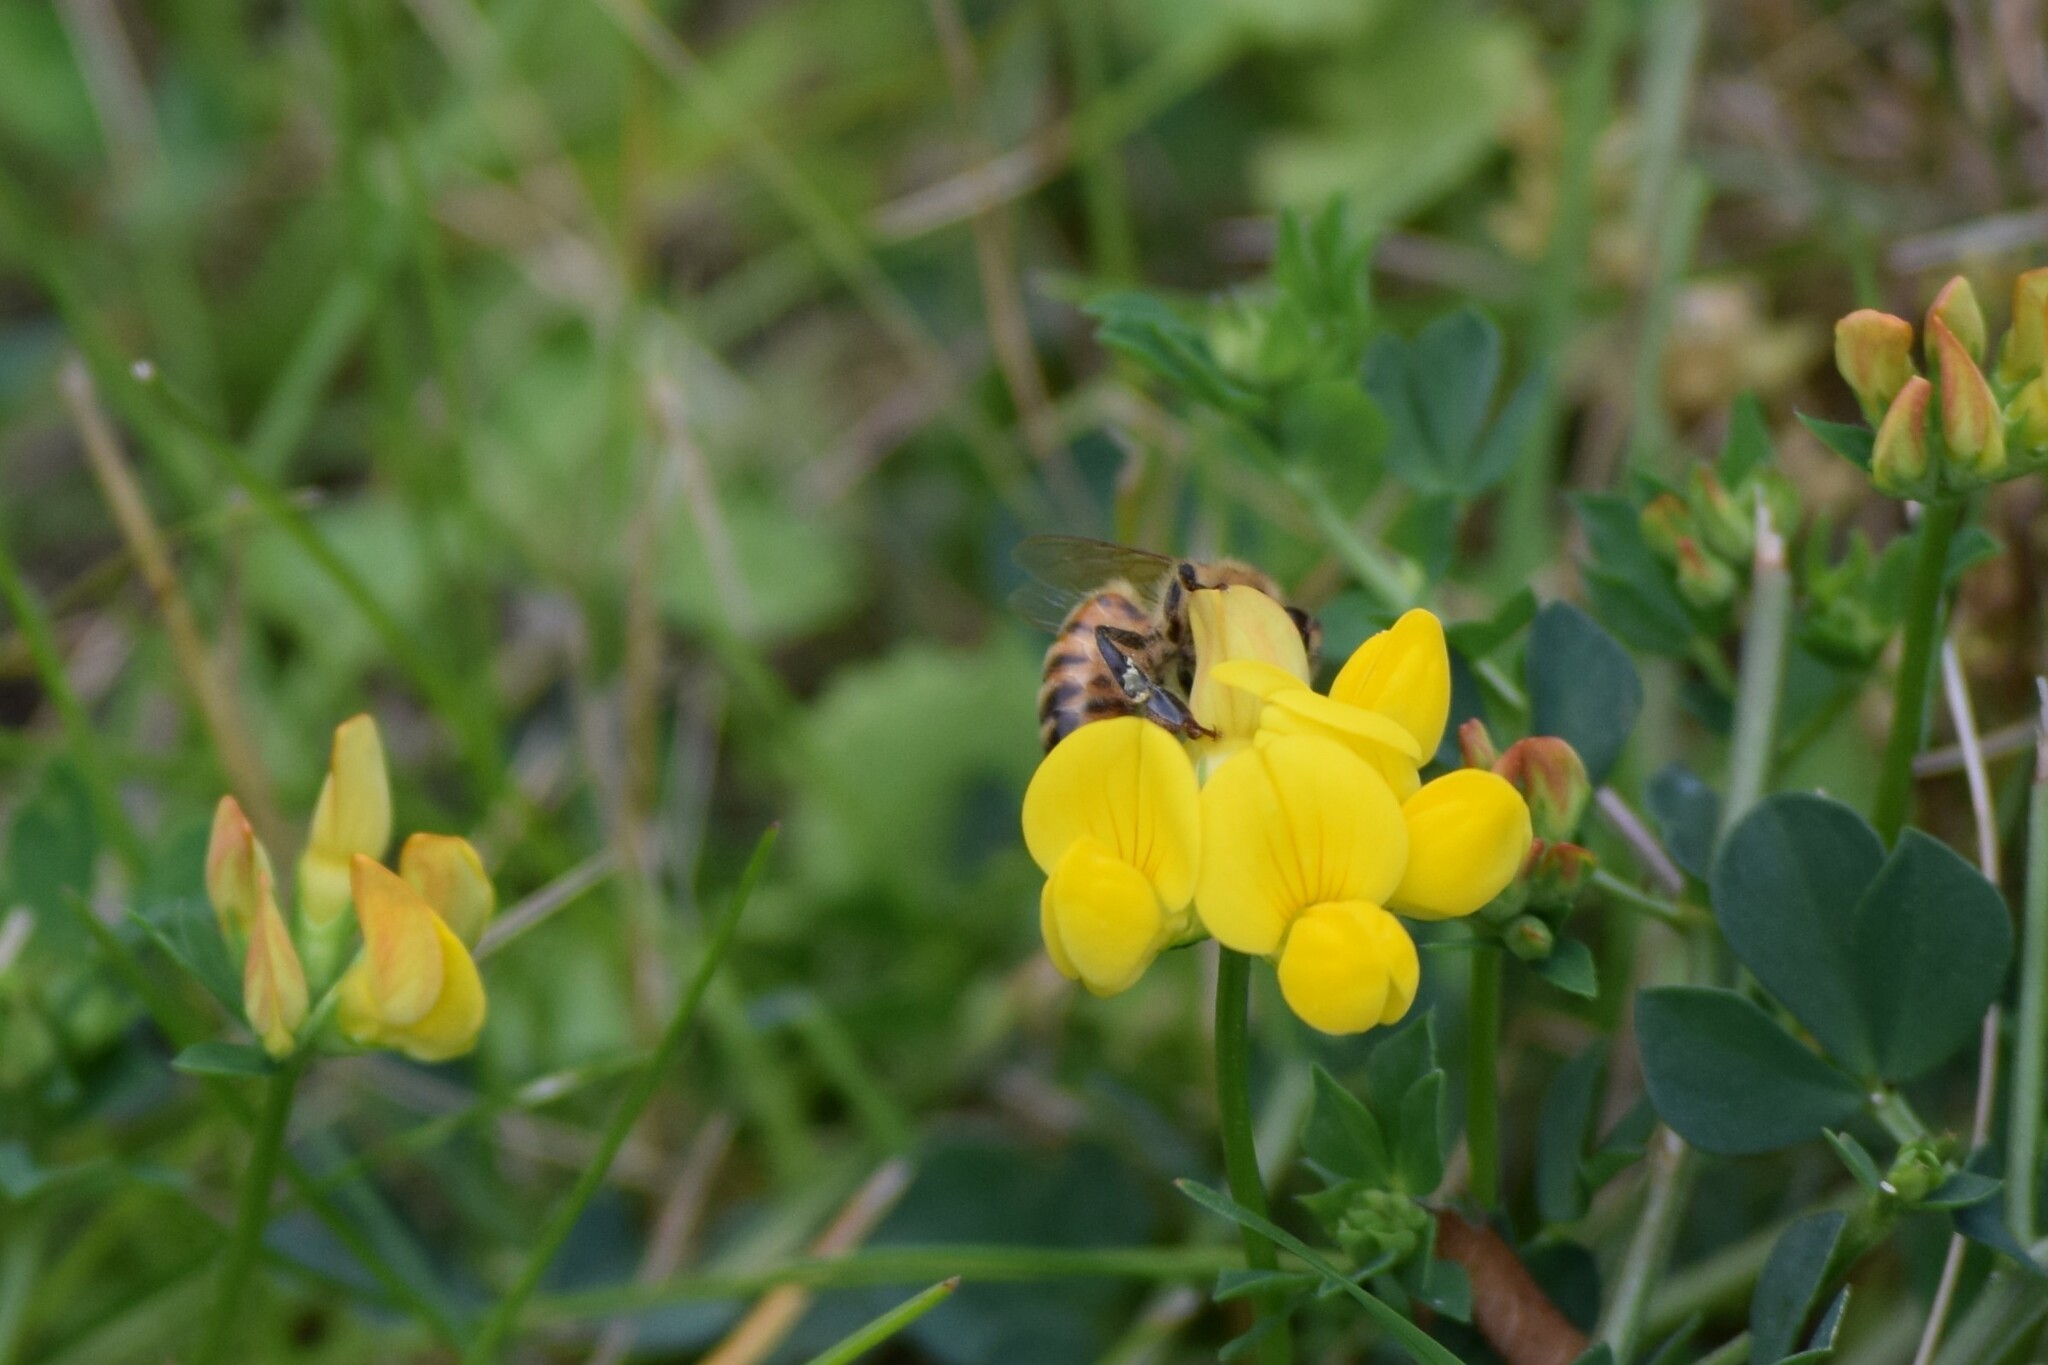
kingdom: Animalia
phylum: Arthropoda
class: Insecta
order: Hymenoptera
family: Apidae
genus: Apis
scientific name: Apis mellifera
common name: Honey bee
